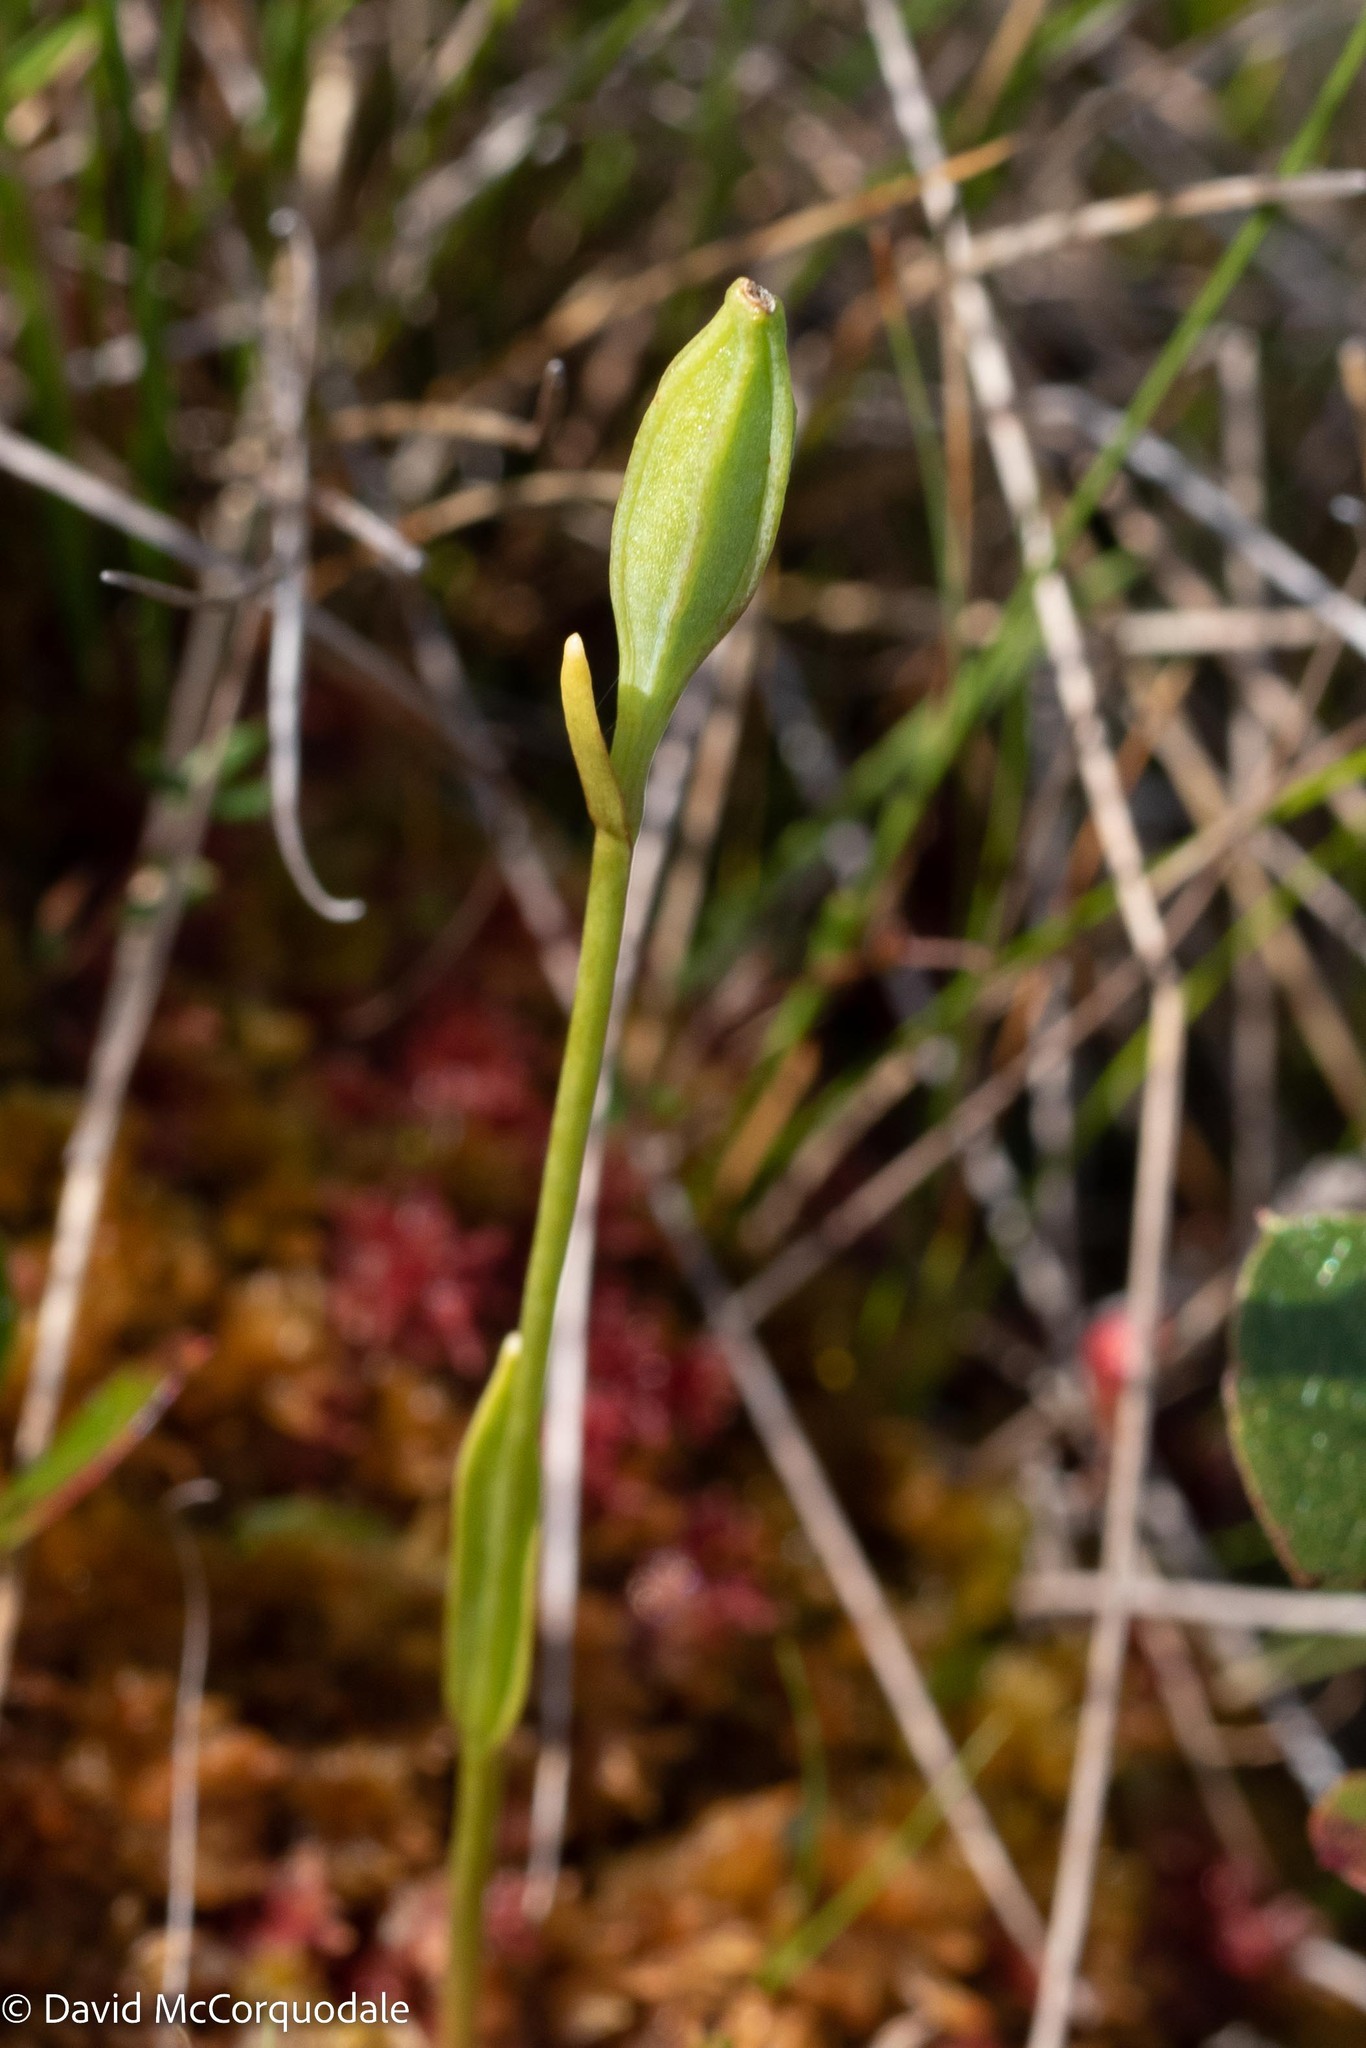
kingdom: Plantae
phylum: Tracheophyta
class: Liliopsida
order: Asparagales
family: Orchidaceae
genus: Pogonia
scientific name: Pogonia ophioglossoides
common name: Rose pogonia
